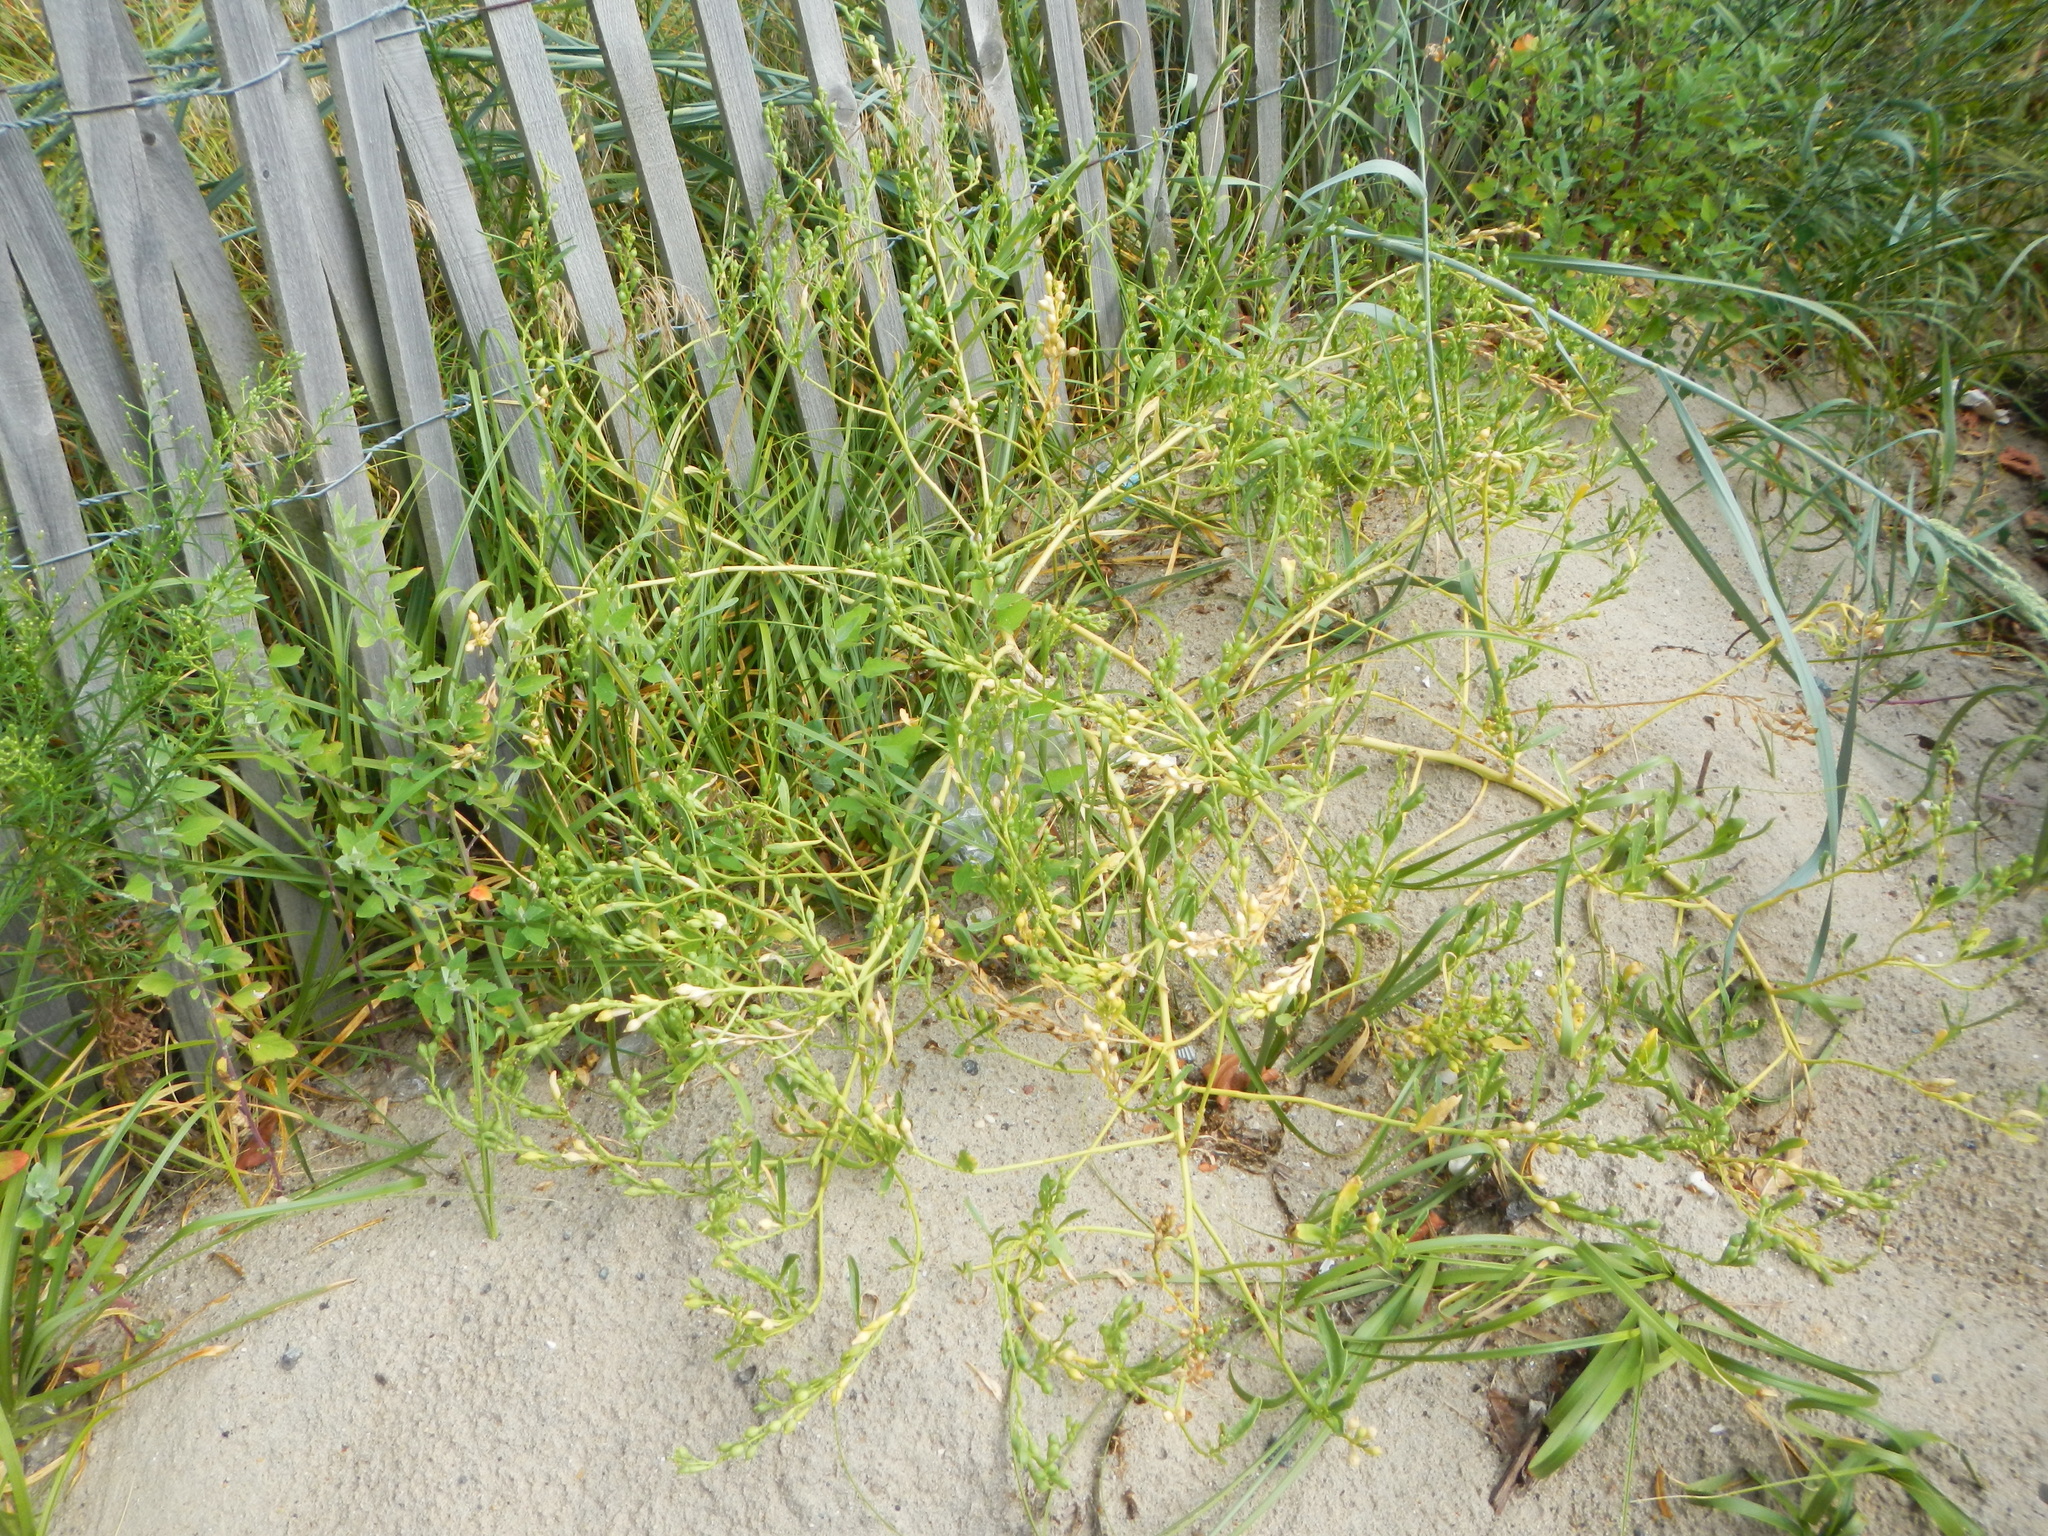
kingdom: Plantae
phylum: Tracheophyta
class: Magnoliopsida
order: Brassicales
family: Brassicaceae
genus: Cakile
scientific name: Cakile edentula
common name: American sea rocket
